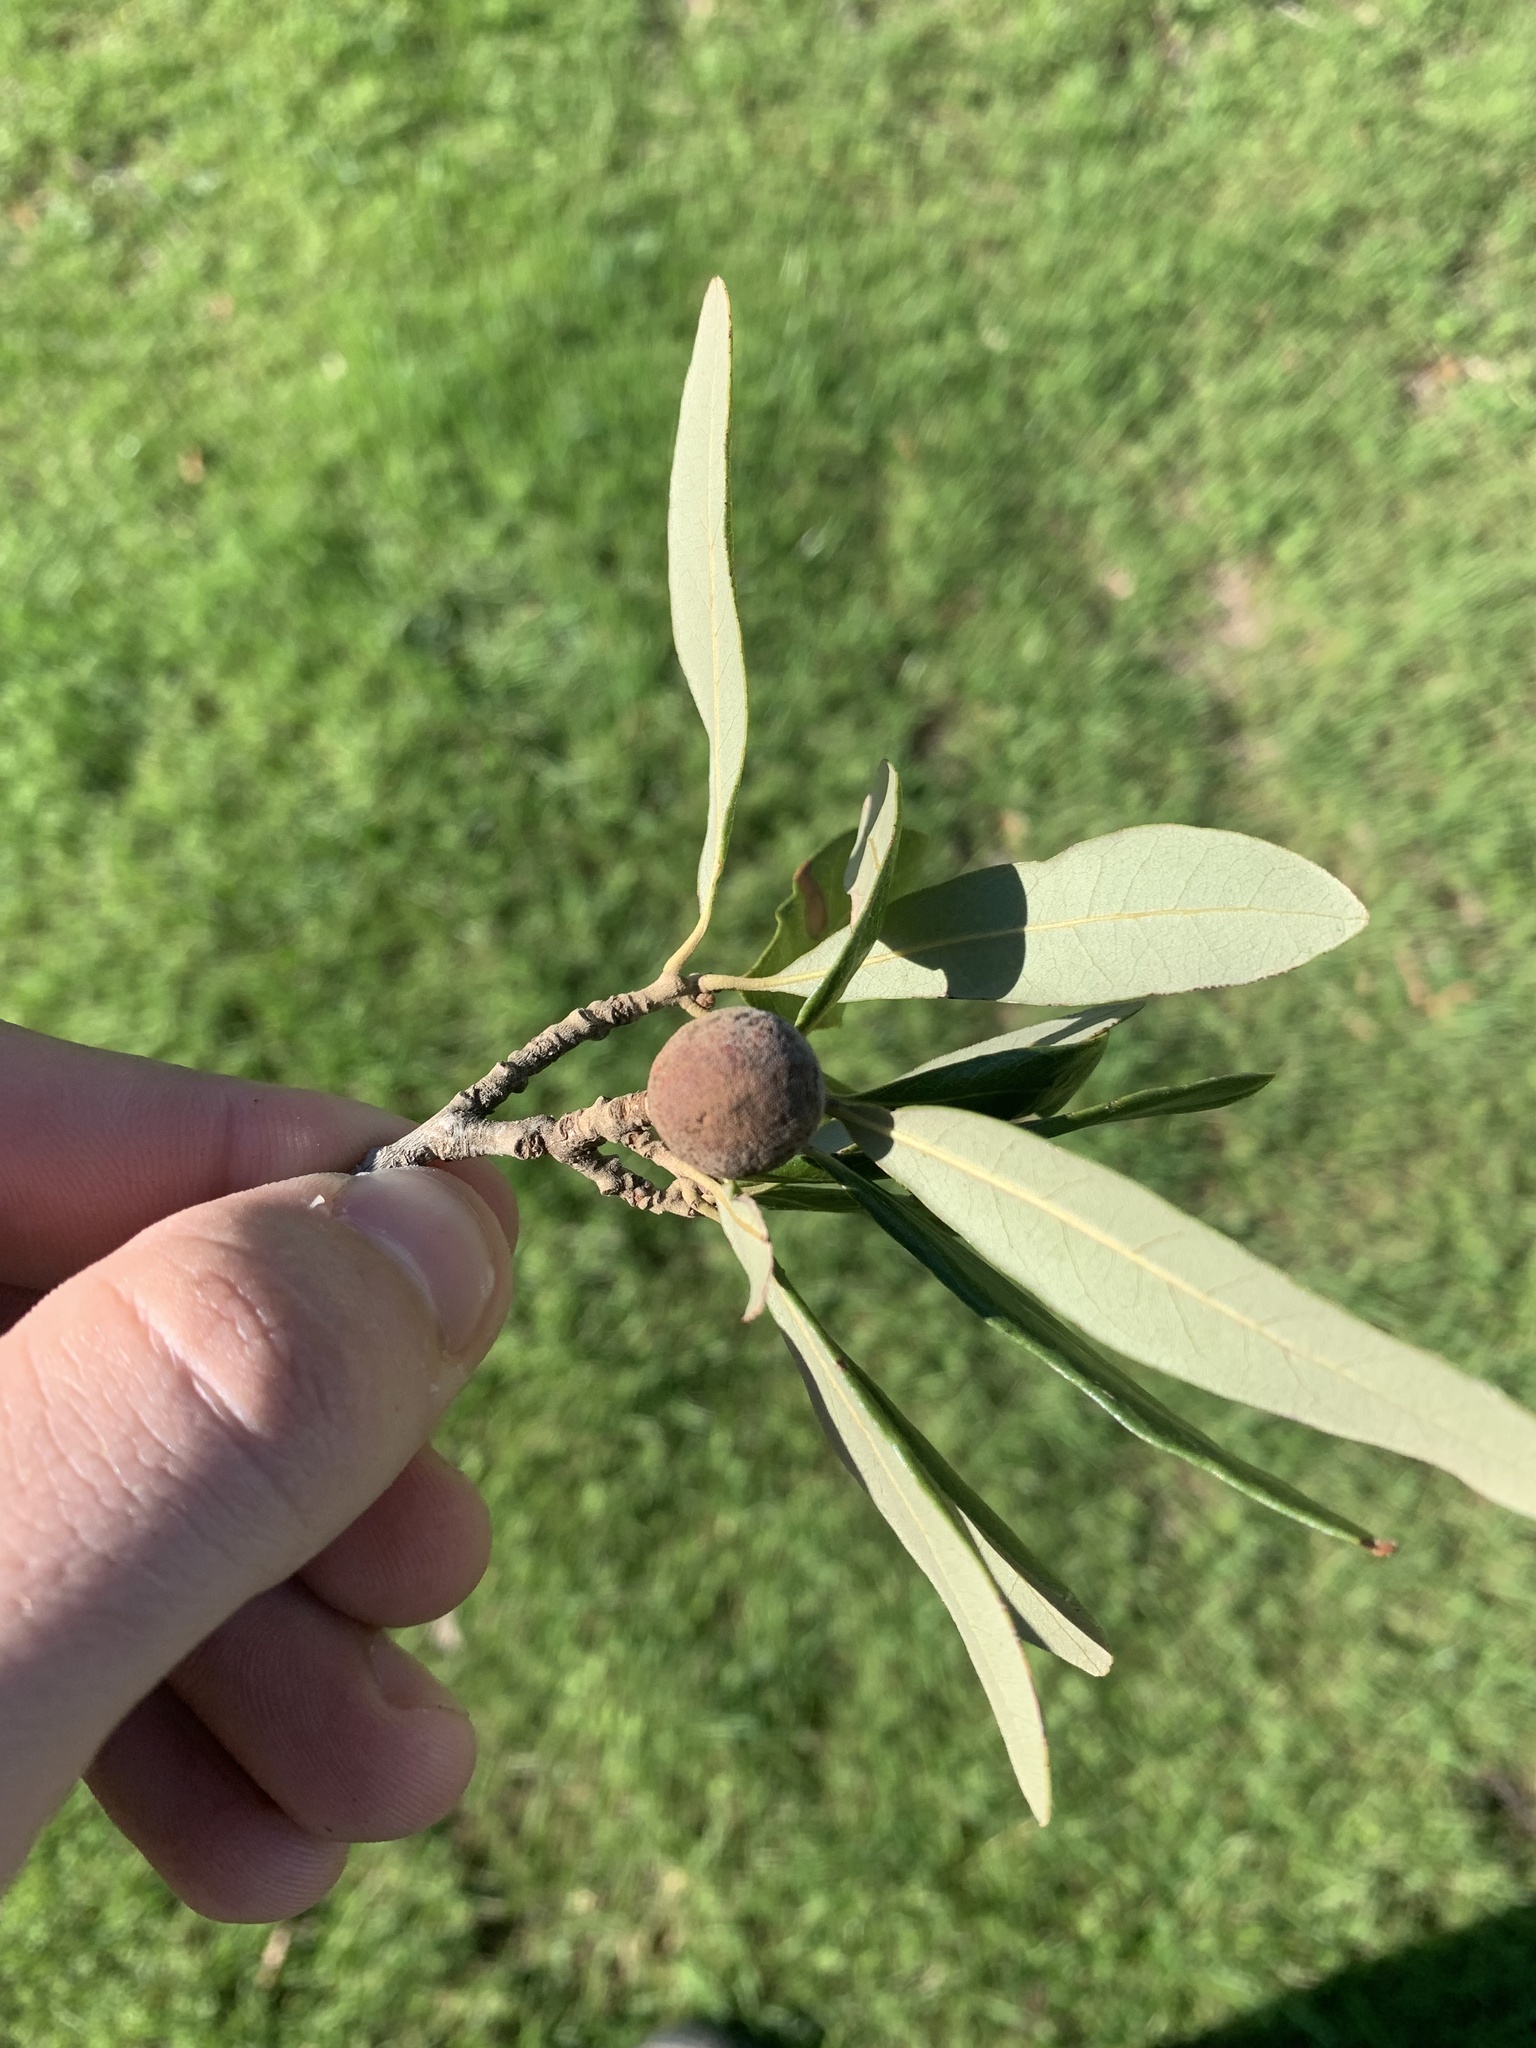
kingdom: Animalia
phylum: Arthropoda
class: Insecta
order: Hymenoptera
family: Cynipidae
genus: Disholcaspis
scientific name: Disholcaspis
